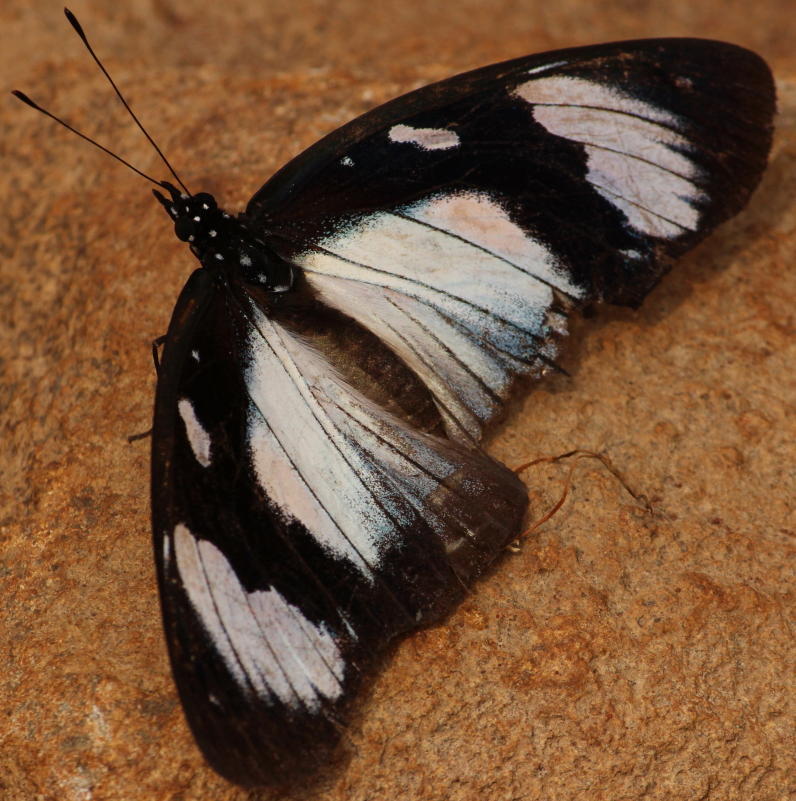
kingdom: Animalia
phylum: Arthropoda
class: Insecta
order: Lepidoptera
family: Nymphalidae
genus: Hypolimnas
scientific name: Hypolimnas dubius
